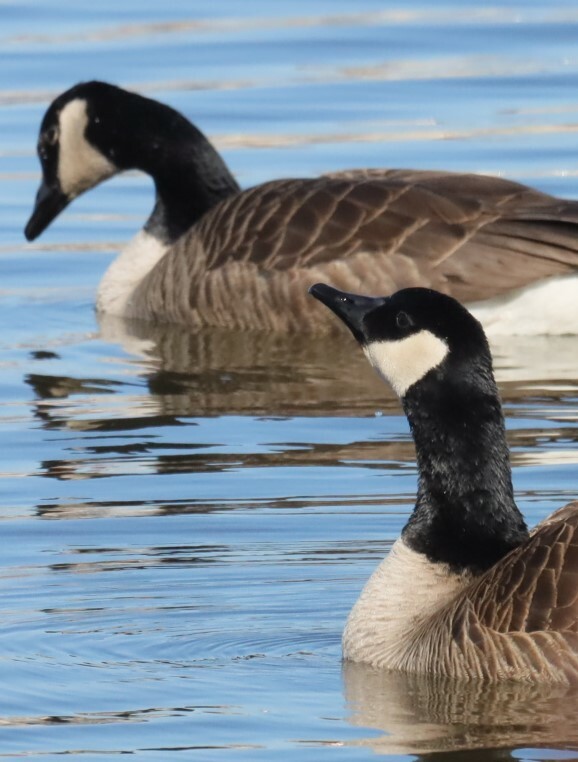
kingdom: Animalia
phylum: Chordata
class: Aves
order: Anseriformes
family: Anatidae
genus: Branta
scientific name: Branta canadensis
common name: Canada goose
